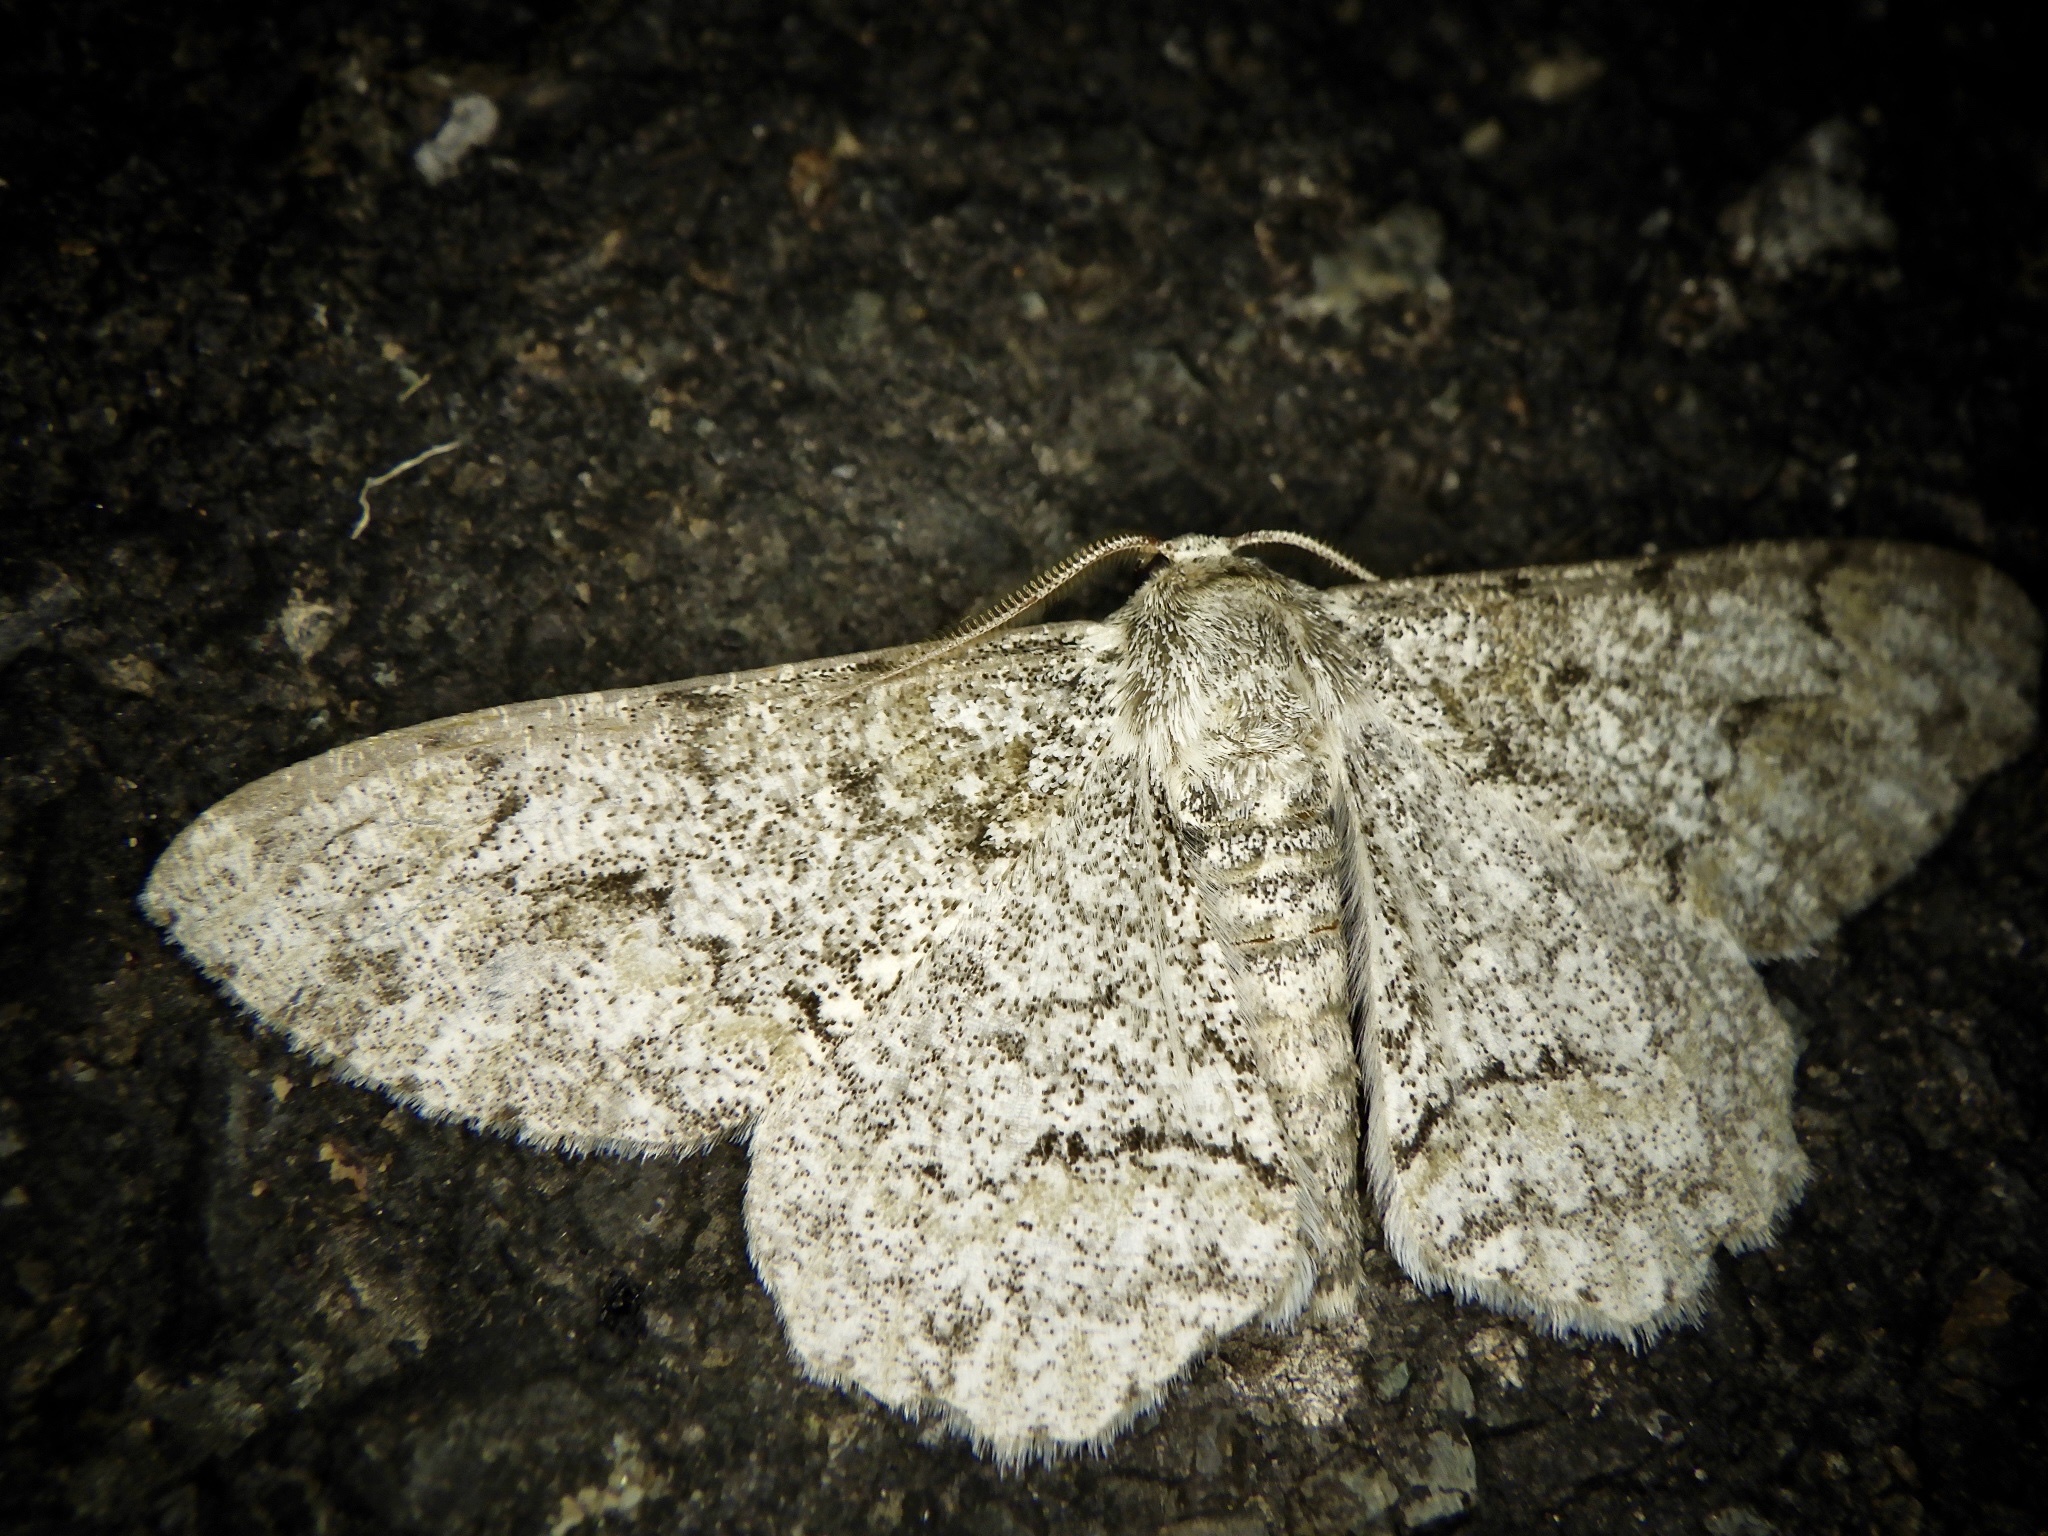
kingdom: Animalia
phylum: Arthropoda
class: Insecta
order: Lepidoptera
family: Geometridae
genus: Cusiala
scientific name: Cusiala stipitaria
